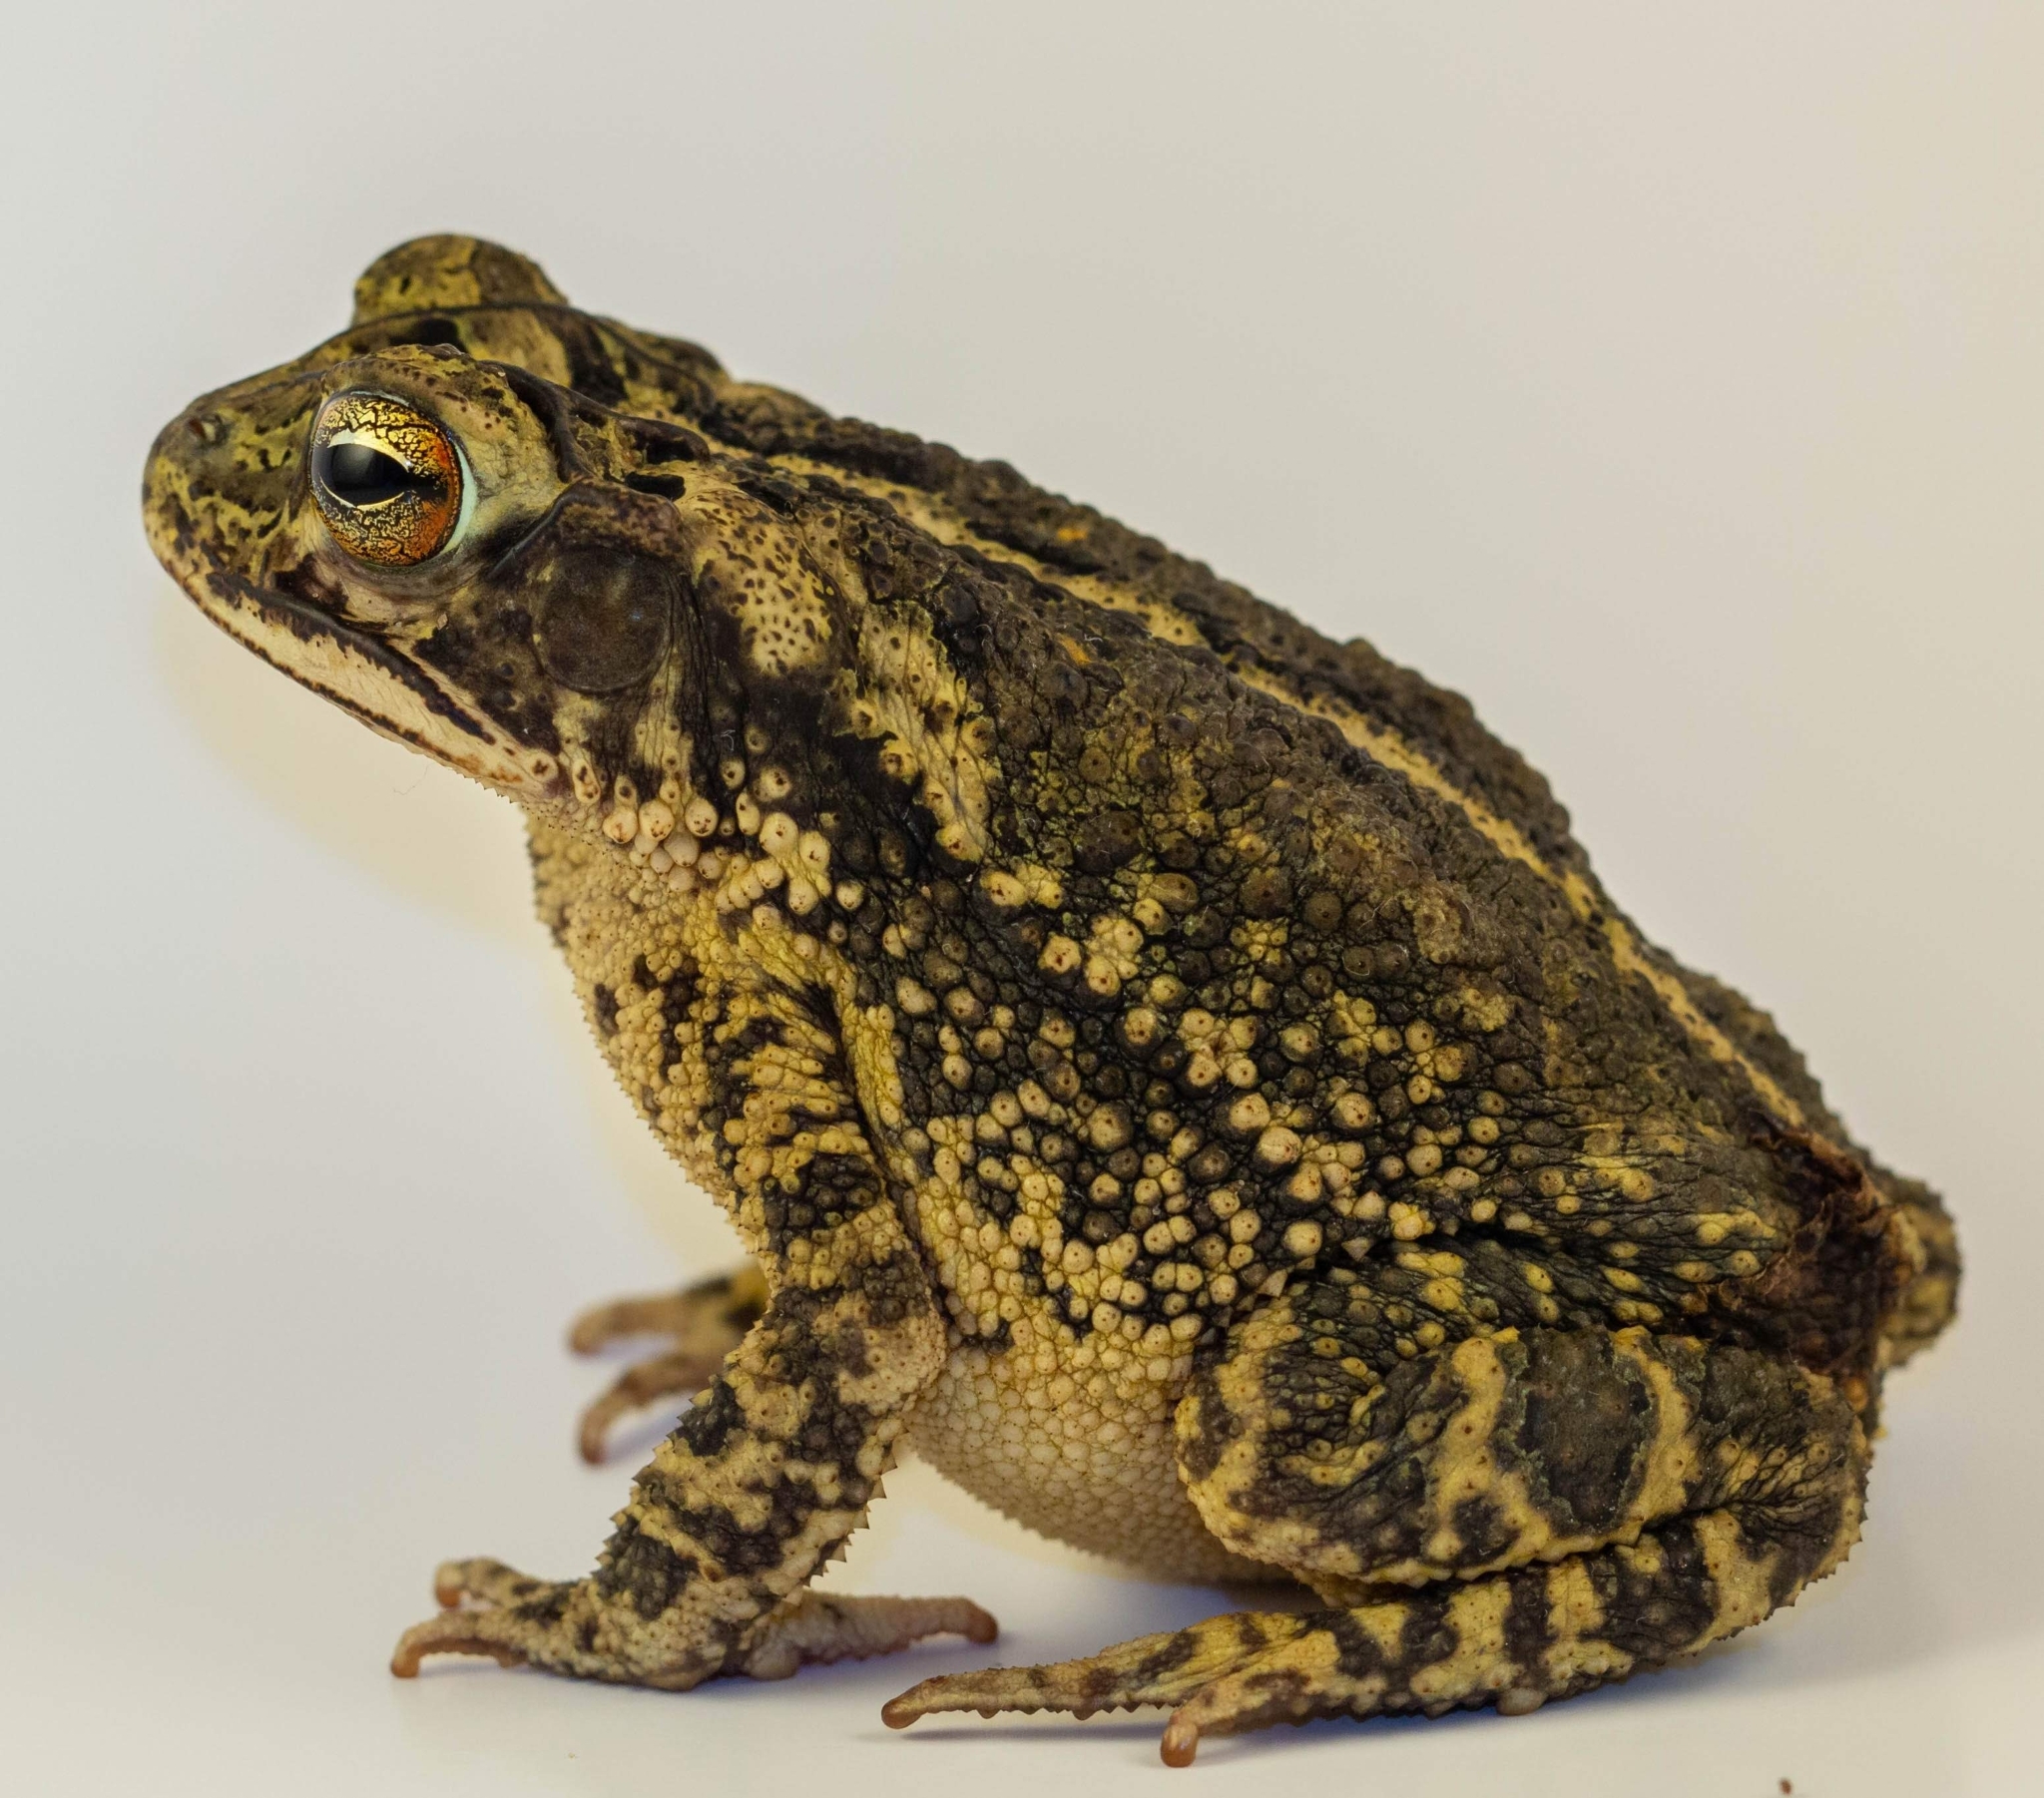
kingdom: Animalia
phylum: Chordata
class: Amphibia
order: Anura
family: Bufonidae
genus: Incilius
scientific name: Incilius nebulifer
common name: Gulf coast toad
